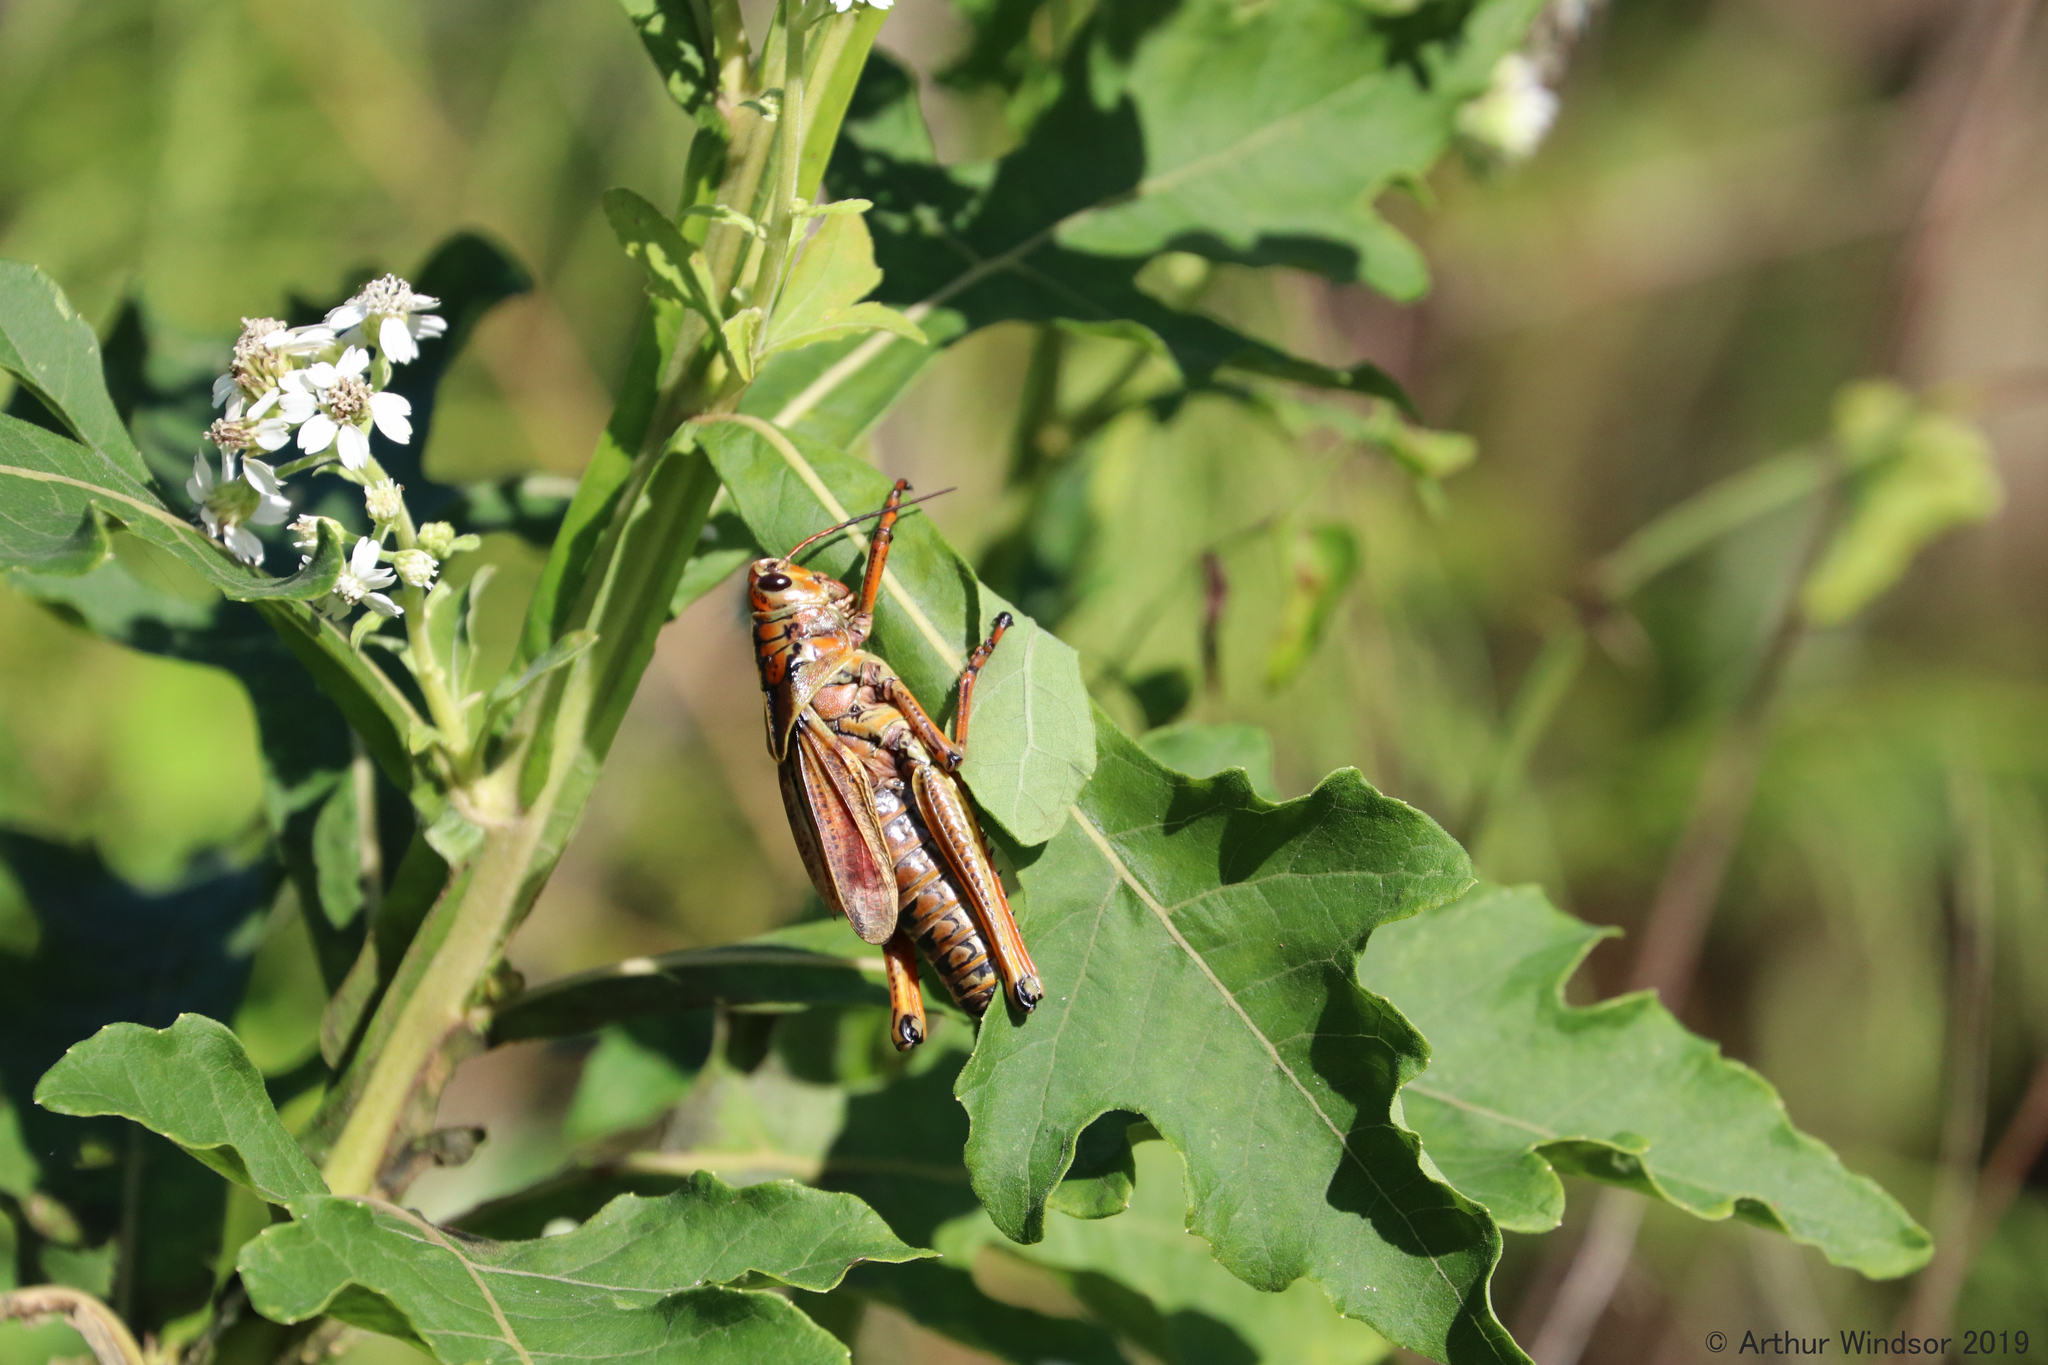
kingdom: Animalia
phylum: Arthropoda
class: Insecta
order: Orthoptera
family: Romaleidae
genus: Romalea
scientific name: Romalea microptera
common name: Eastern lubber grasshopper
